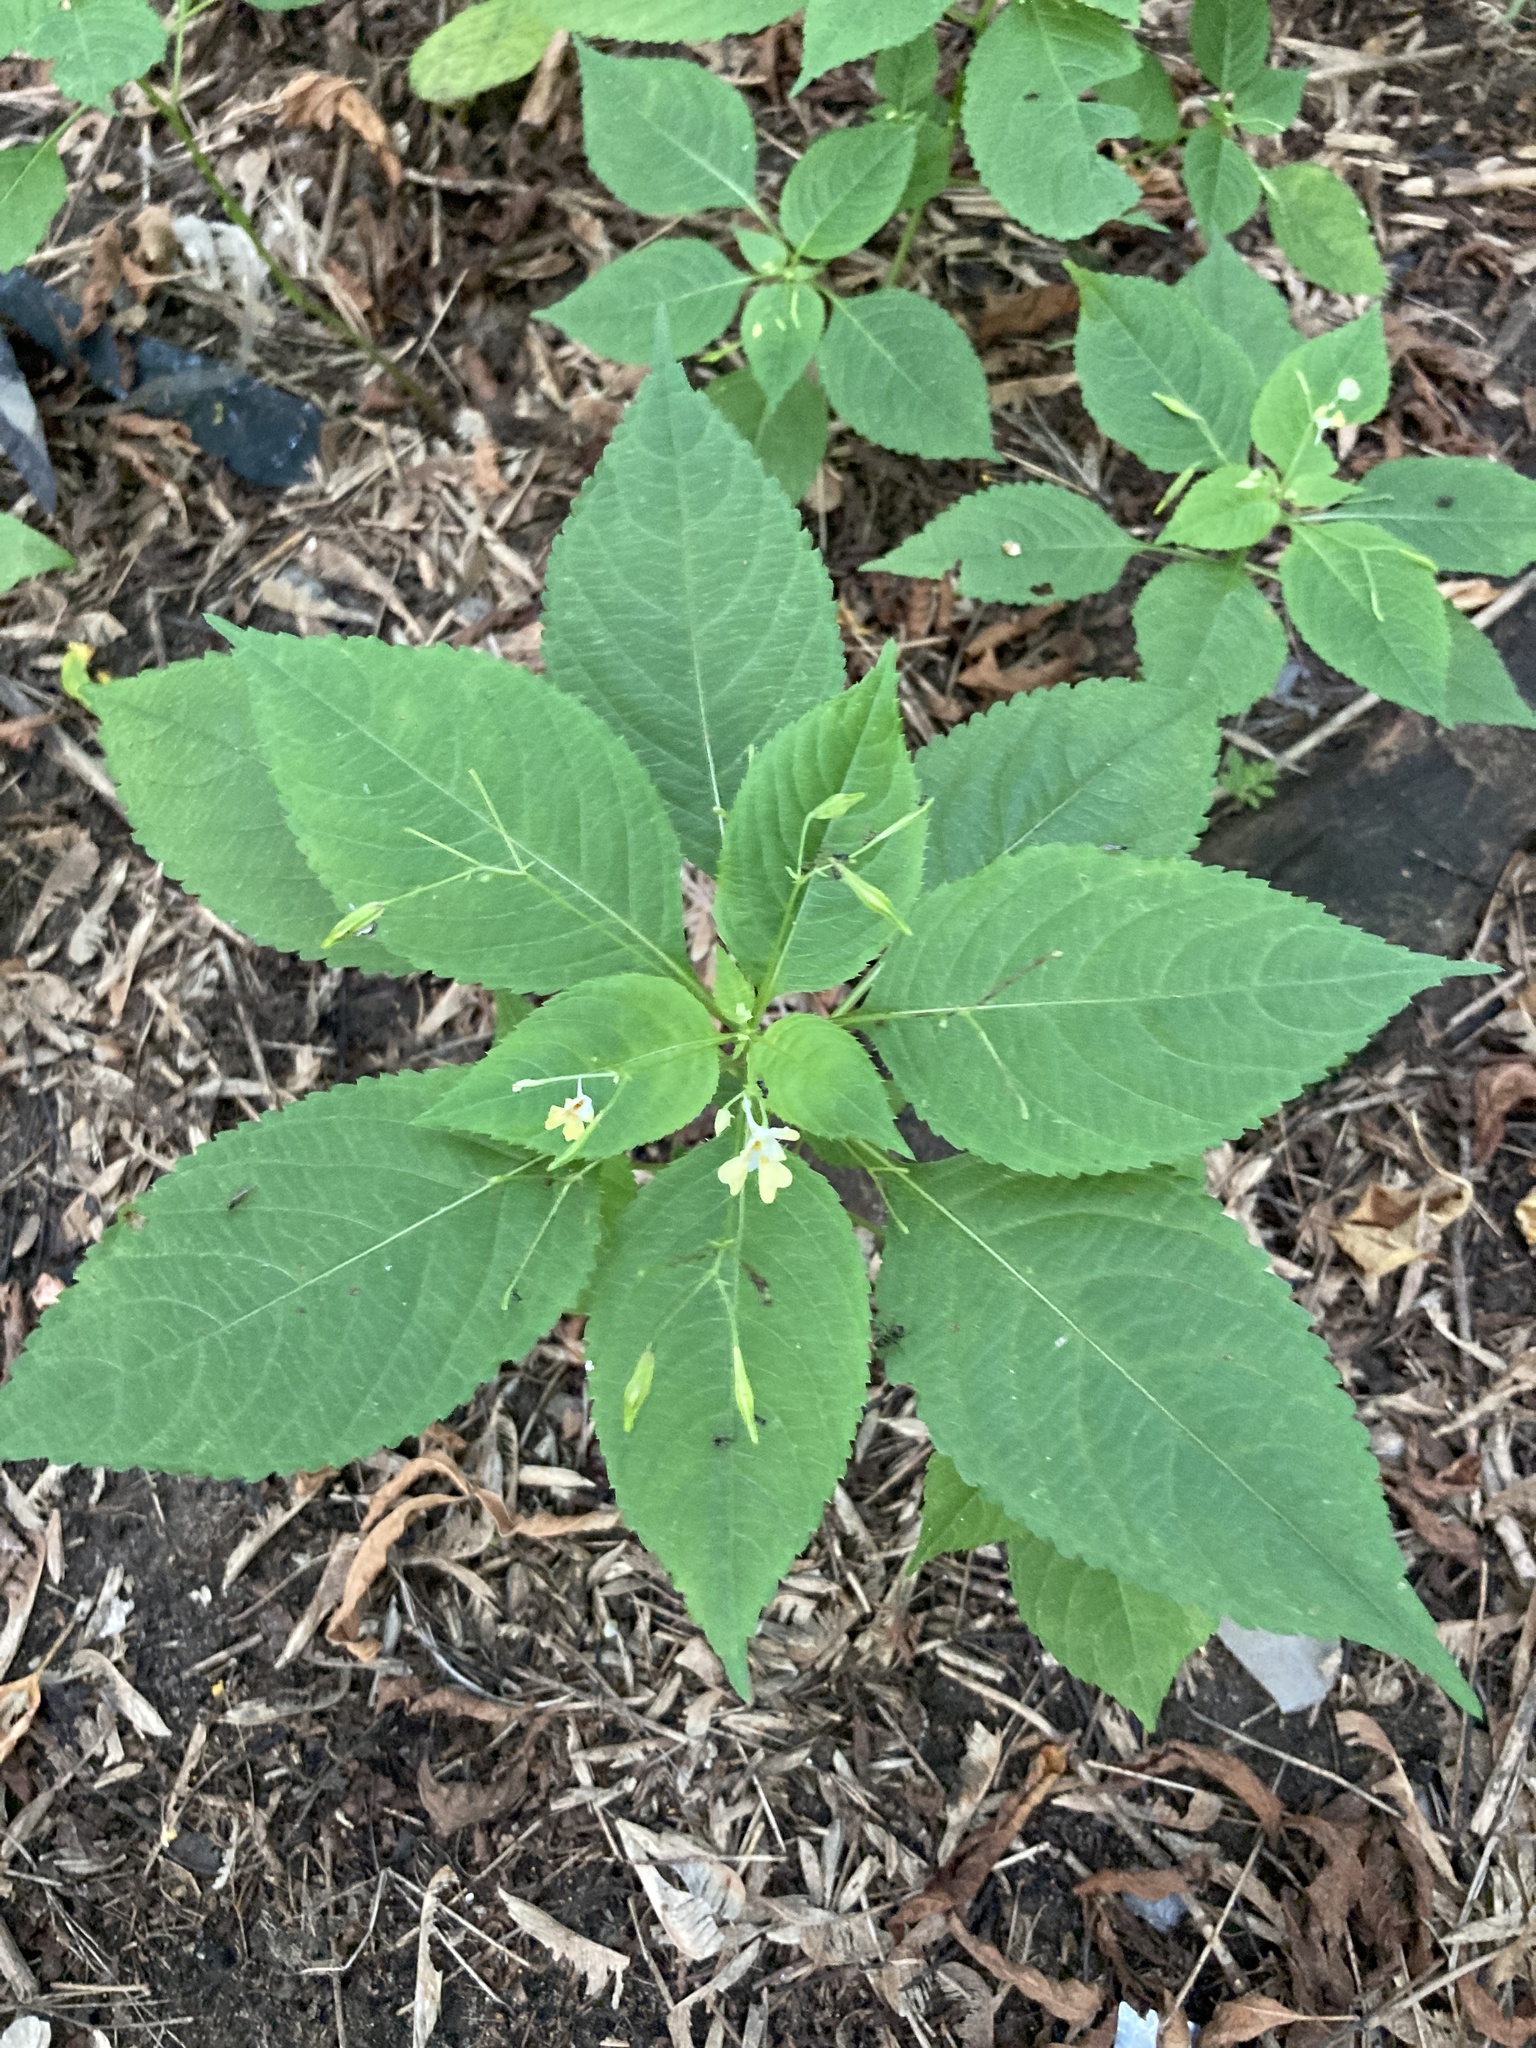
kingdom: Plantae
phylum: Tracheophyta
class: Magnoliopsida
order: Ericales
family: Balsaminaceae
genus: Impatiens
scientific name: Impatiens parviflora
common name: Small balsam
